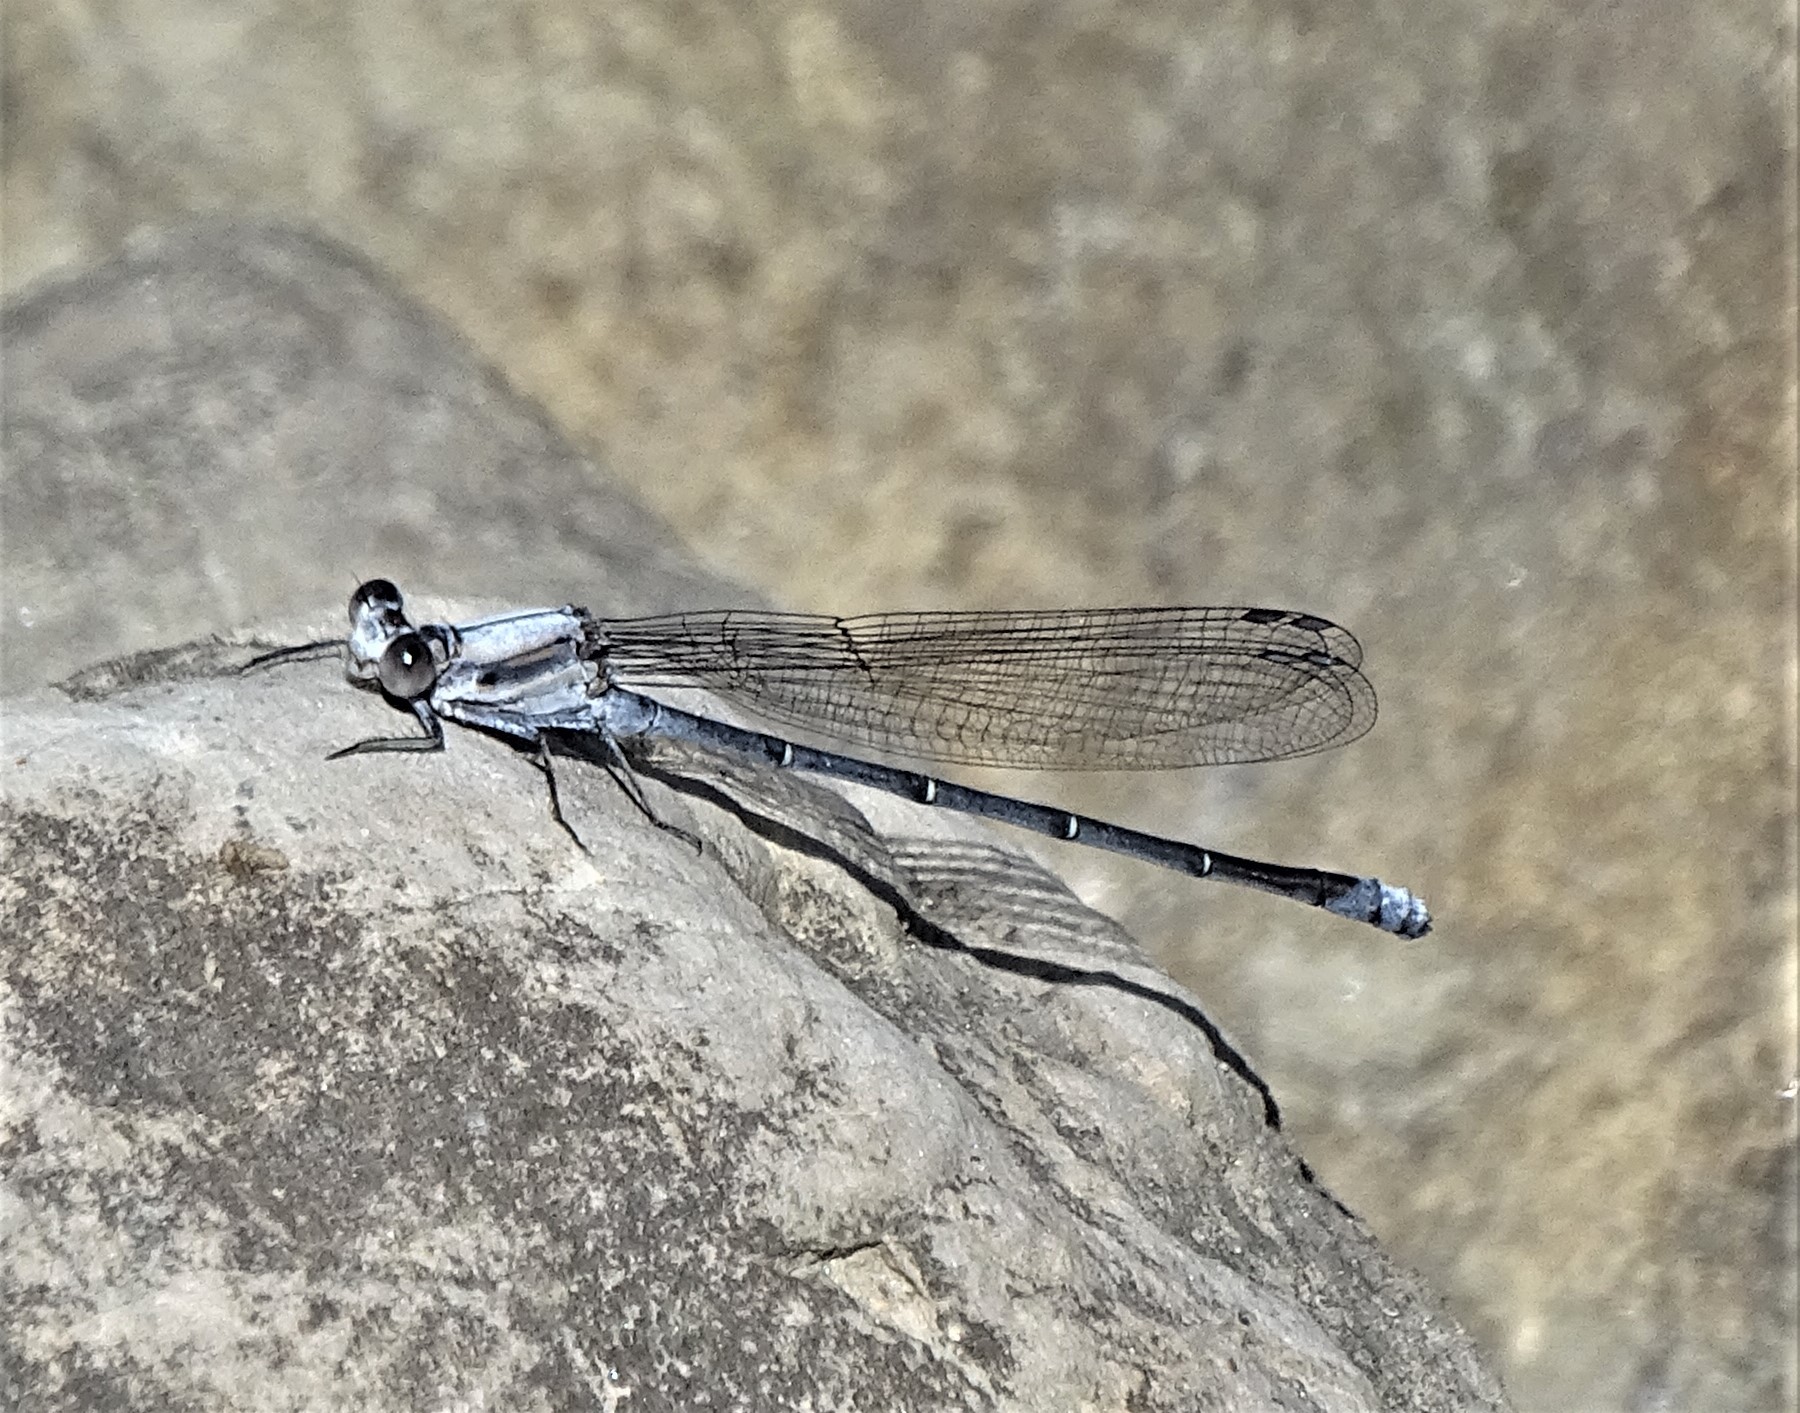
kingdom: Animalia
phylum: Arthropoda
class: Insecta
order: Odonata
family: Coenagrionidae
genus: Argia
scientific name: Argia moesta
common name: Powdered dancer
